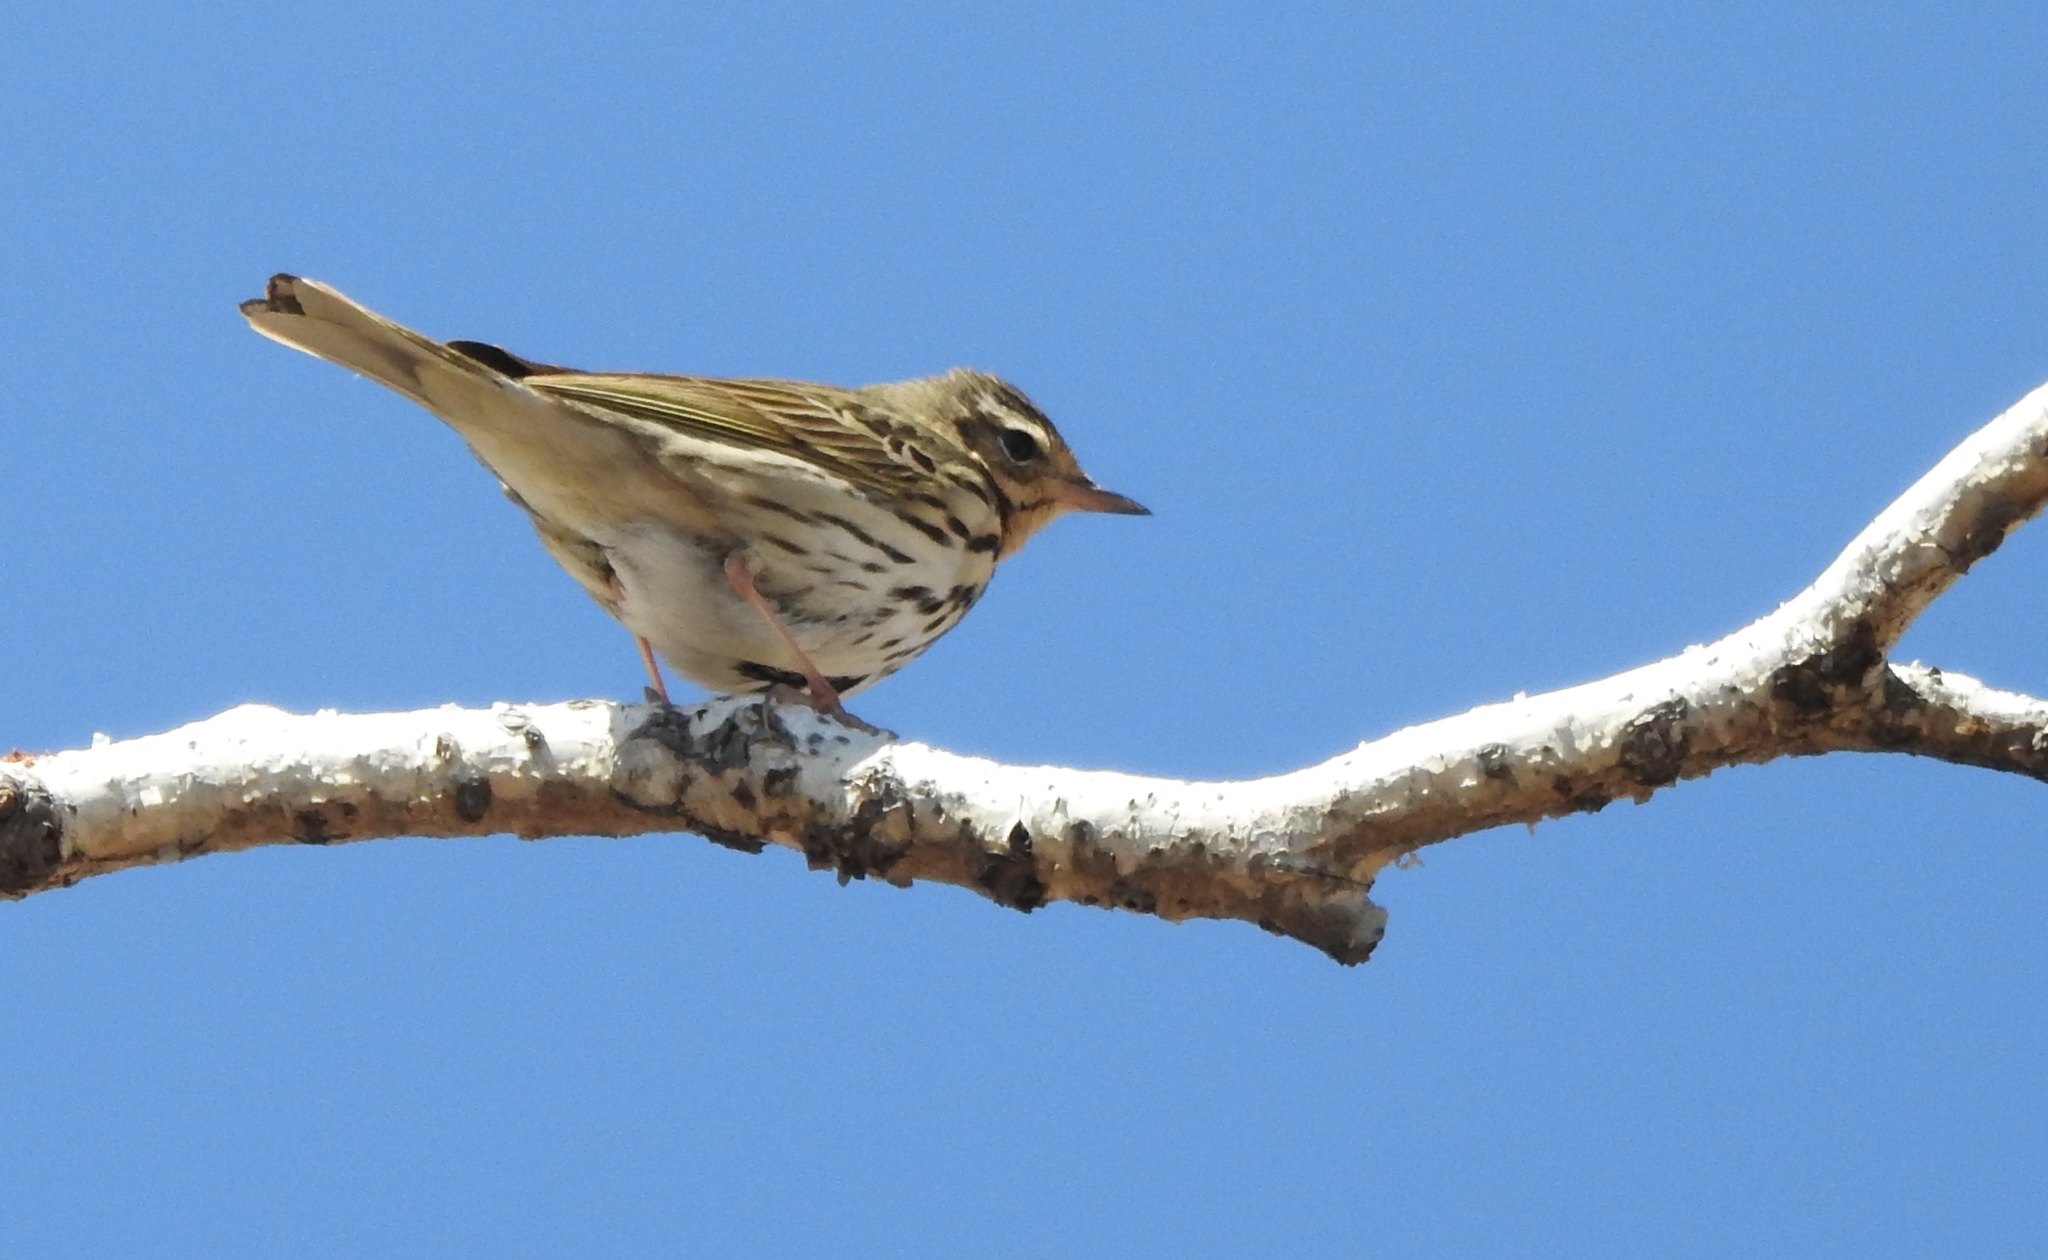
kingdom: Animalia
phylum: Chordata
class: Aves
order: Passeriformes
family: Motacillidae
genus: Anthus
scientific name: Anthus hodgsoni
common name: Olive-backed pipit
